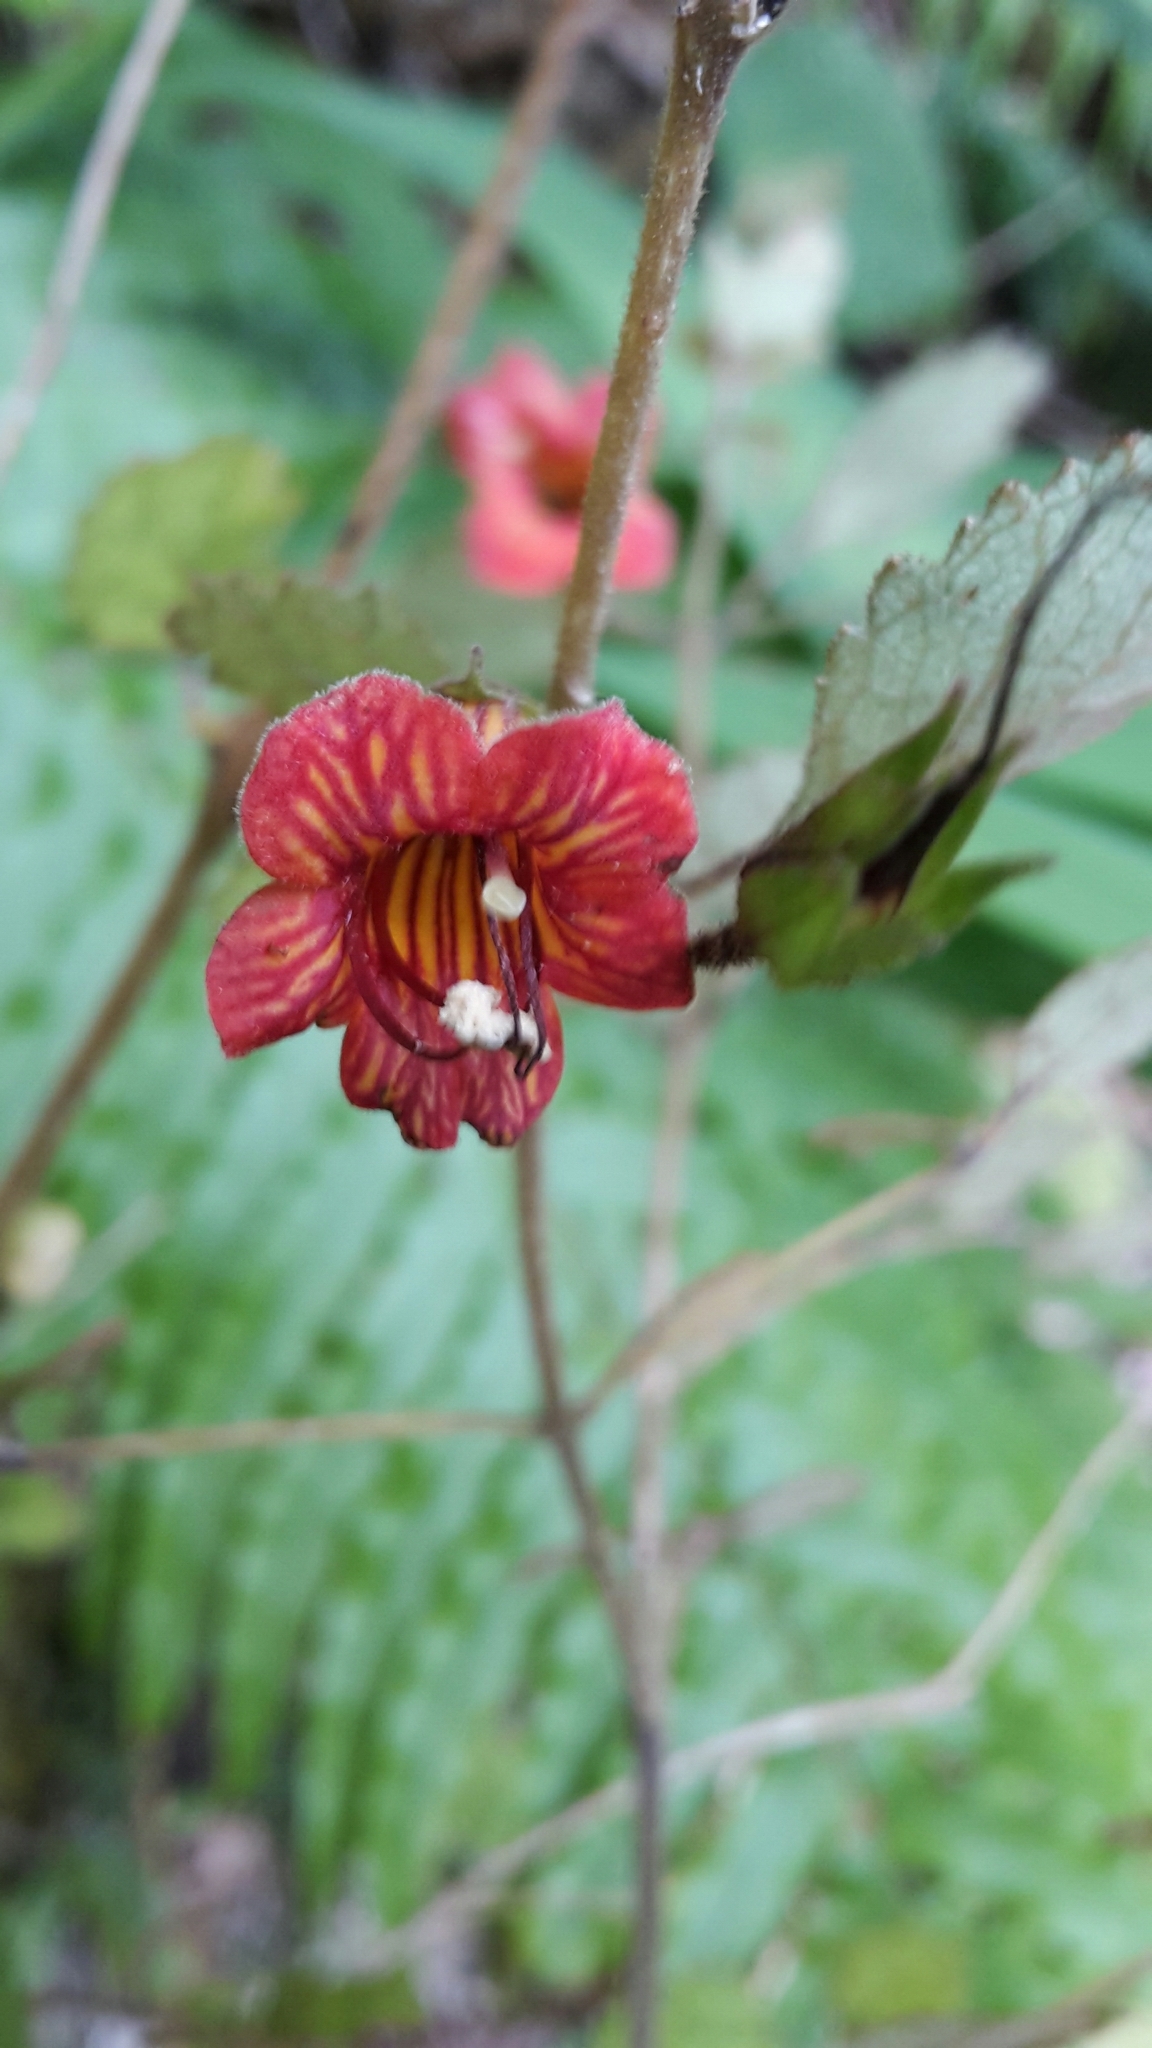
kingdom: Plantae
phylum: Tracheophyta
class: Magnoliopsida
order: Lamiales
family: Gesneriaceae
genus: Rhabdothamnus
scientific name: Rhabdothamnus solandri
